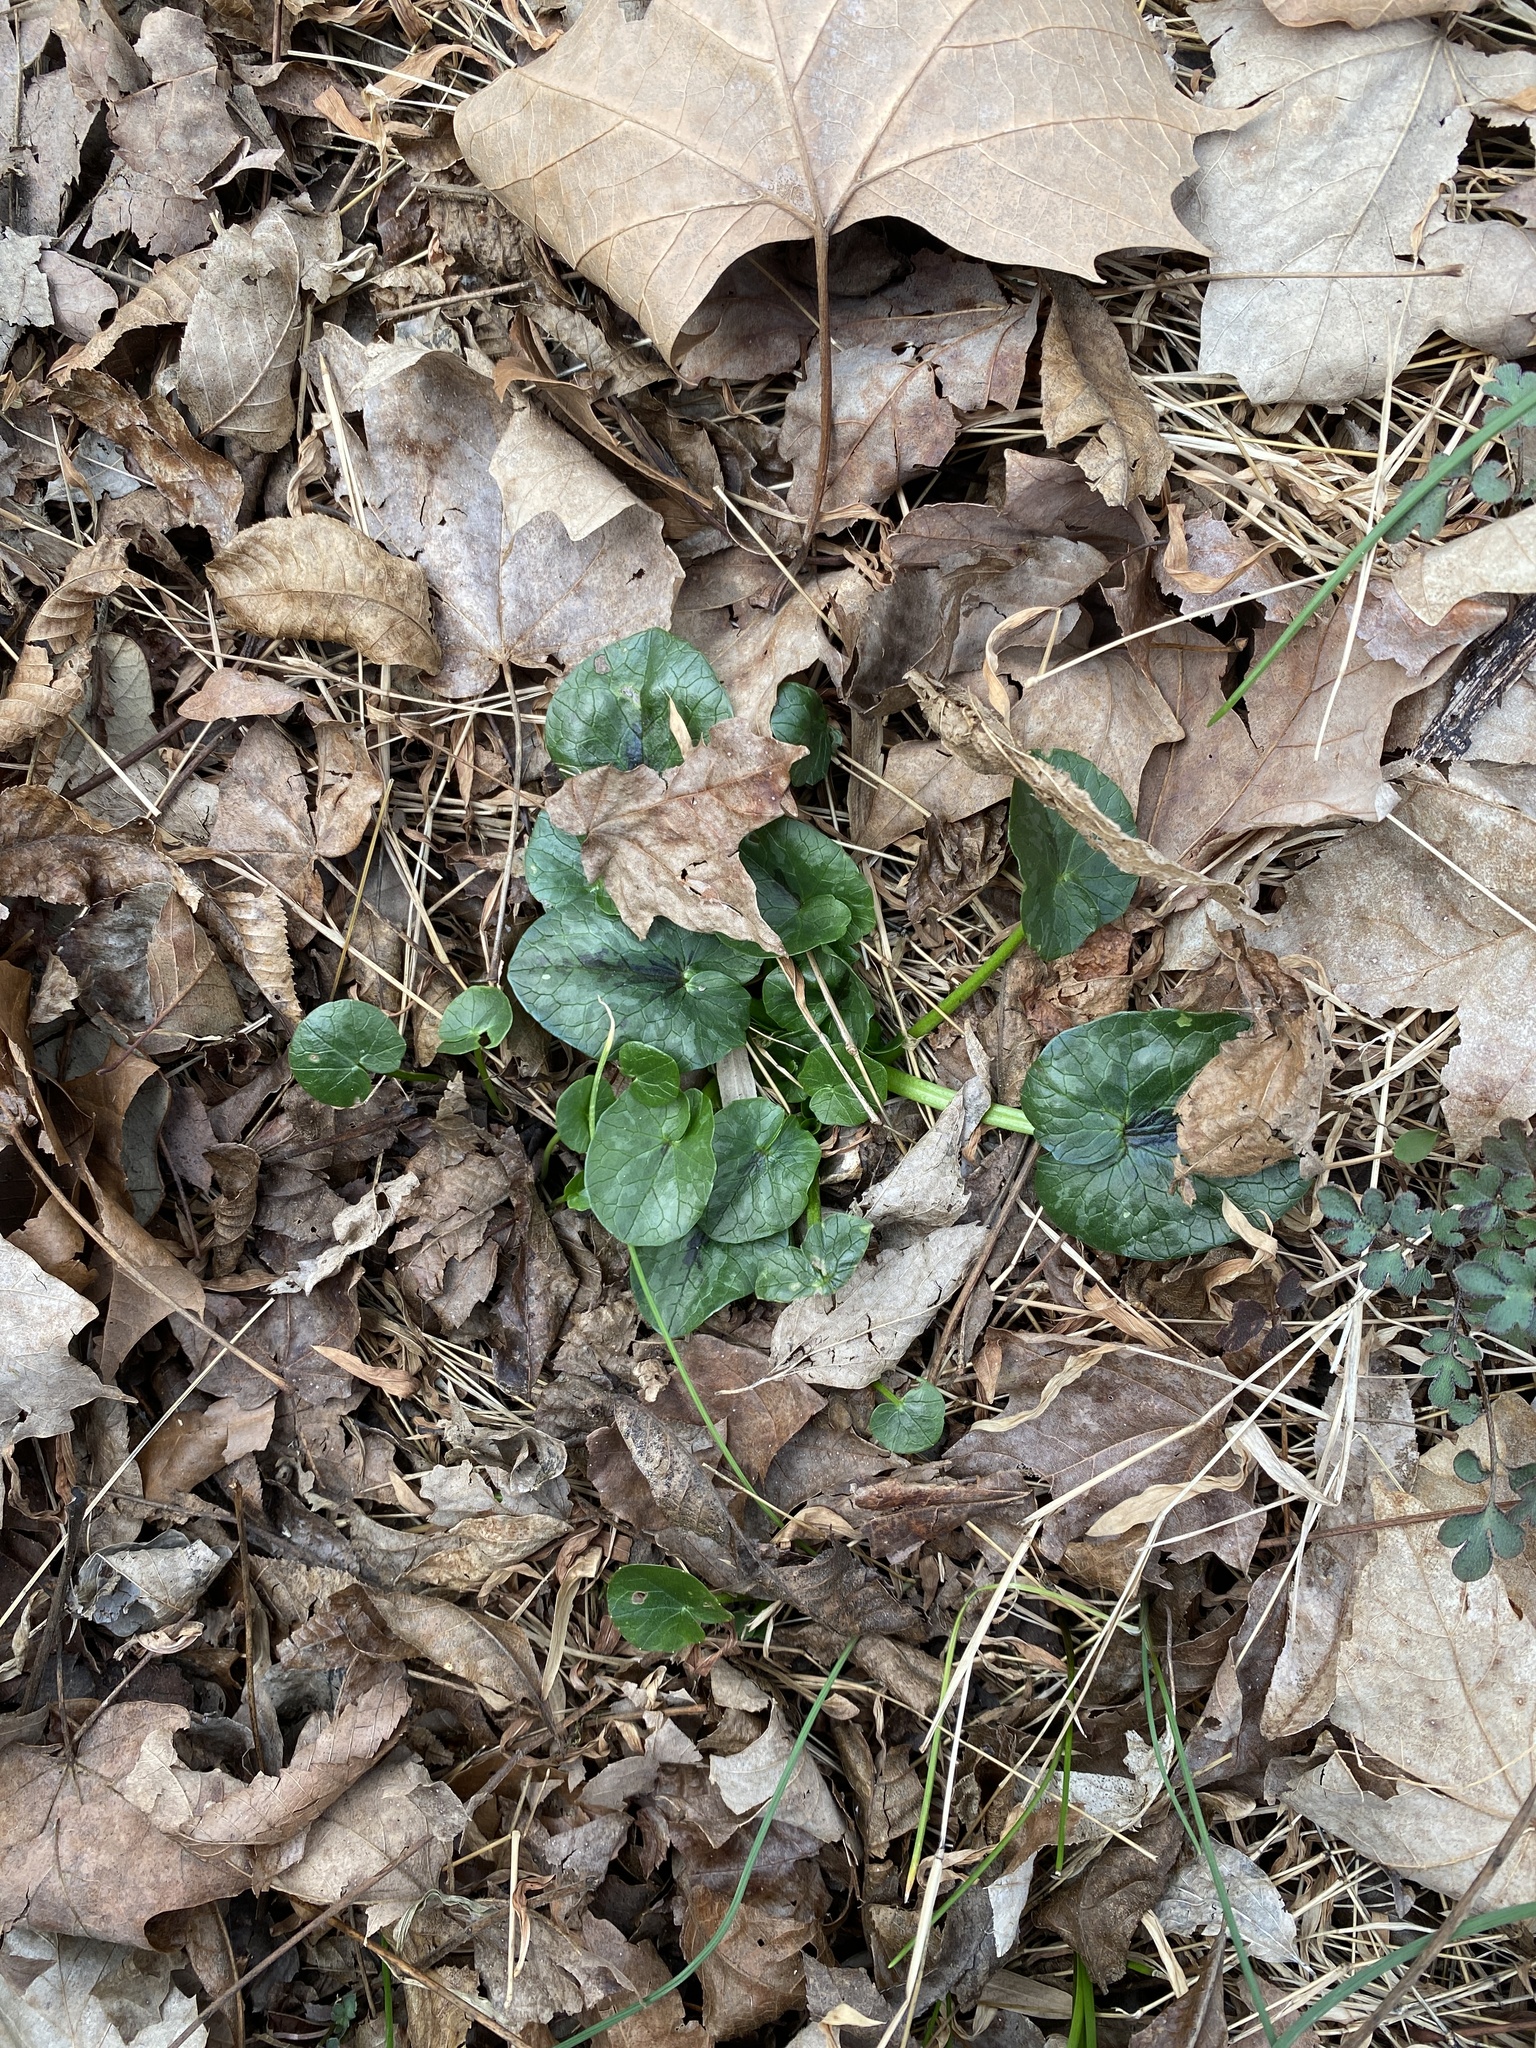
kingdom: Plantae
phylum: Tracheophyta
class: Magnoliopsida
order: Ranunculales
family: Ranunculaceae
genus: Ficaria
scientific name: Ficaria verna
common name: Lesser celandine
